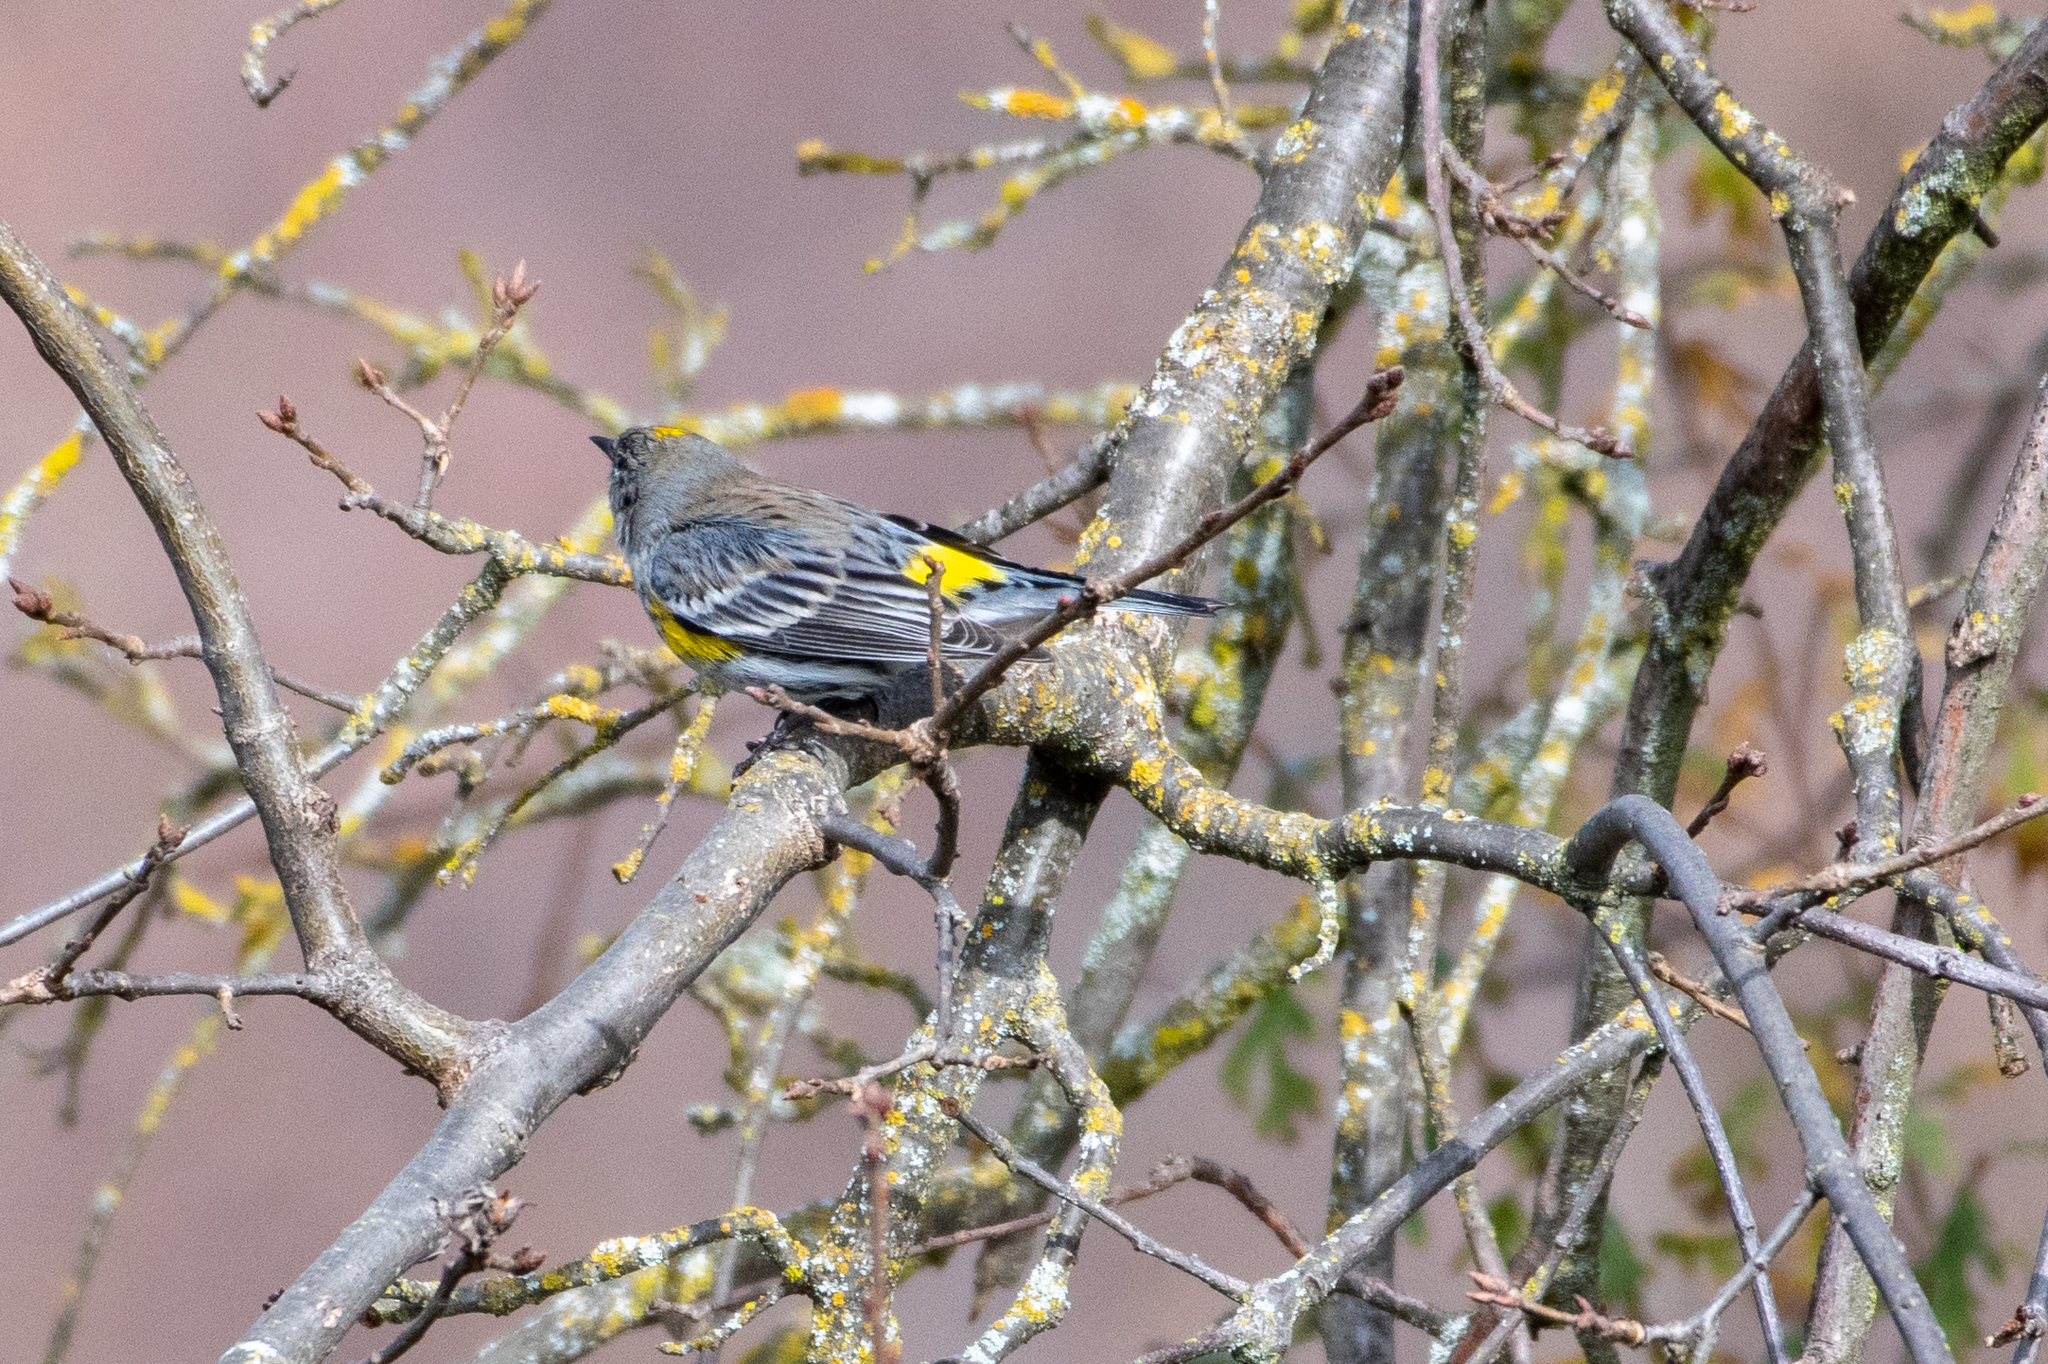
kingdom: Animalia
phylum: Chordata
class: Aves
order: Passeriformes
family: Parulidae
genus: Setophaga
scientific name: Setophaga coronata
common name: Myrtle warbler
